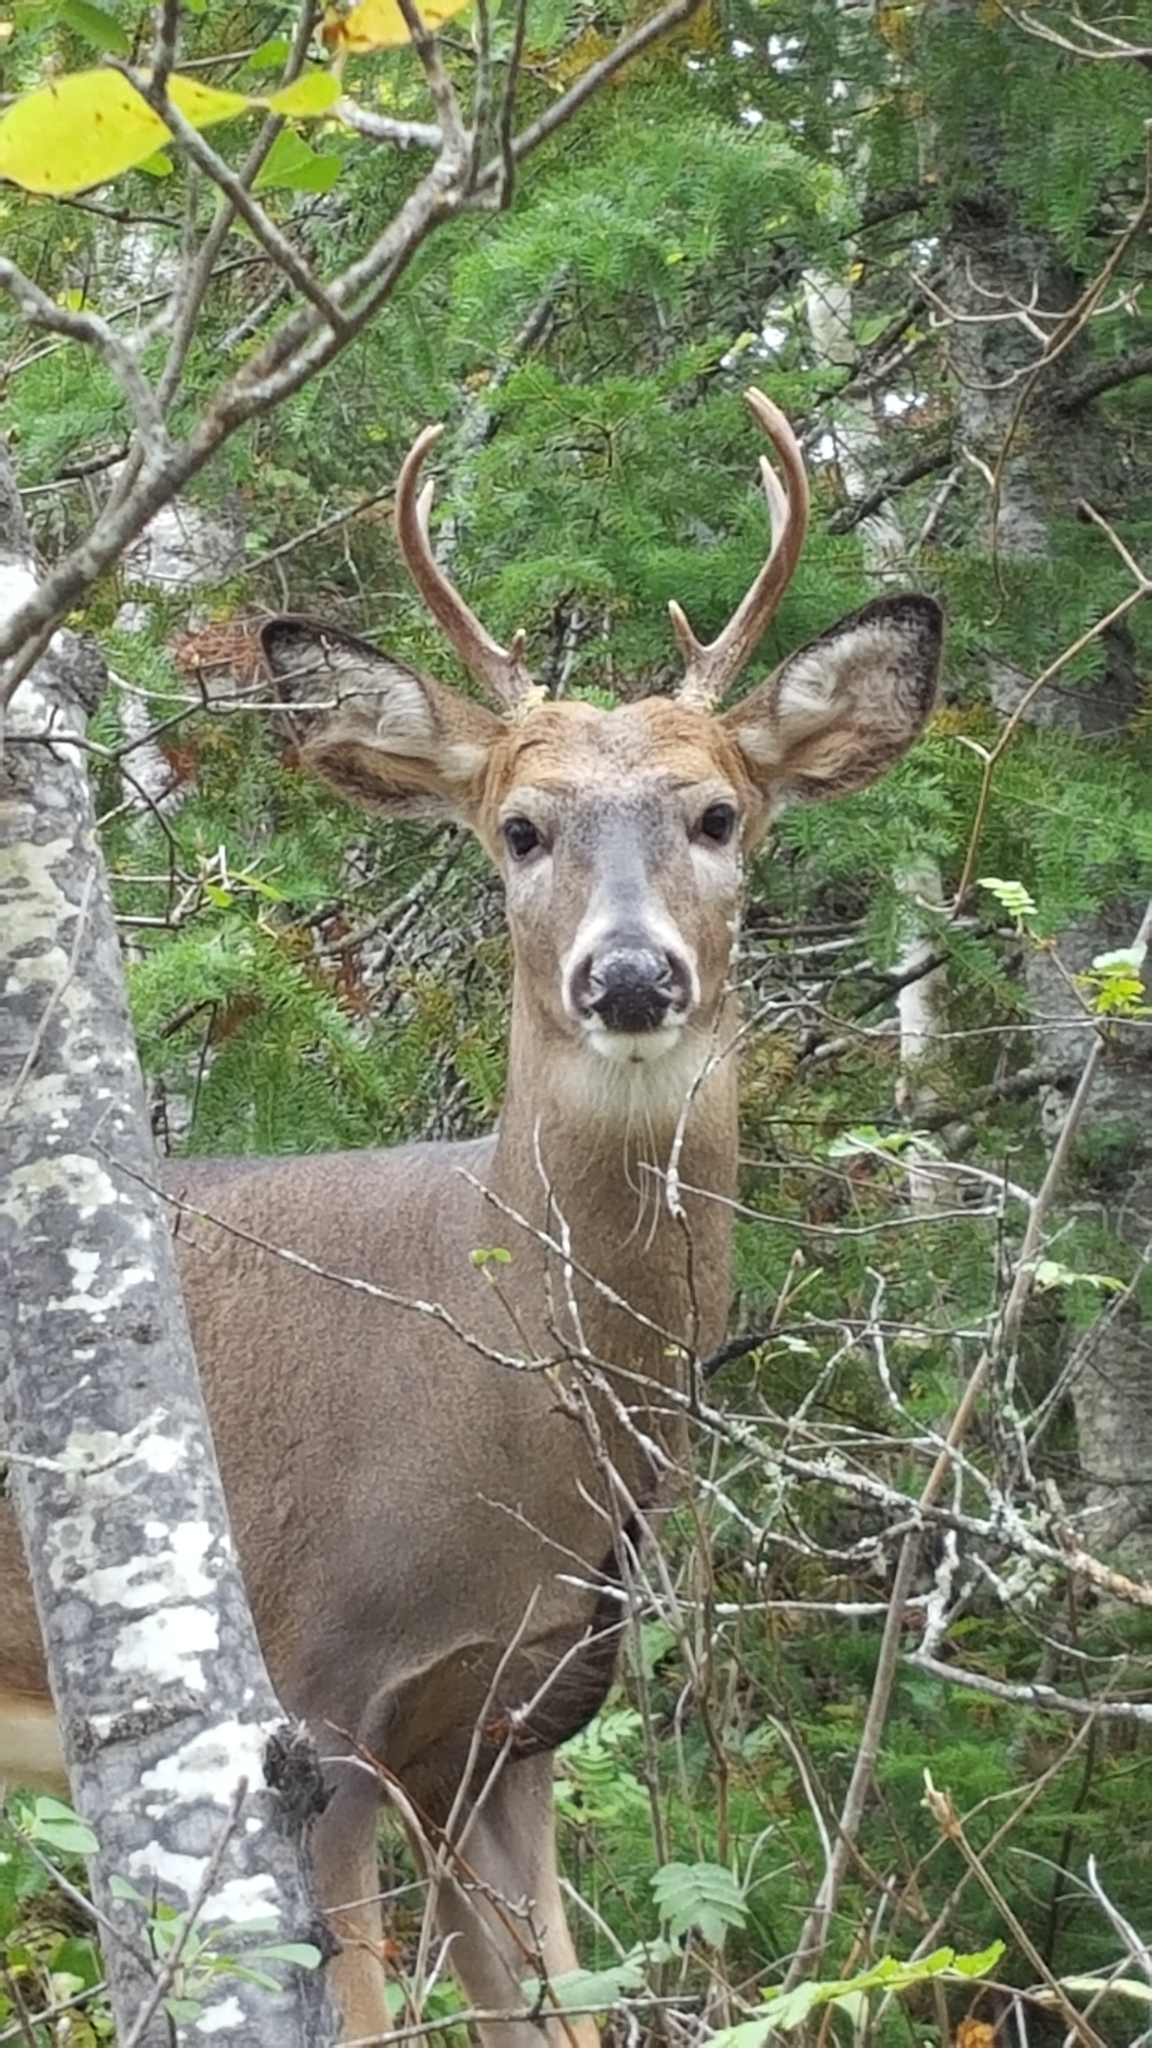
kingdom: Animalia
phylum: Chordata
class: Mammalia
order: Artiodactyla
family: Cervidae
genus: Odocoileus
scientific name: Odocoileus virginianus
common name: White-tailed deer
